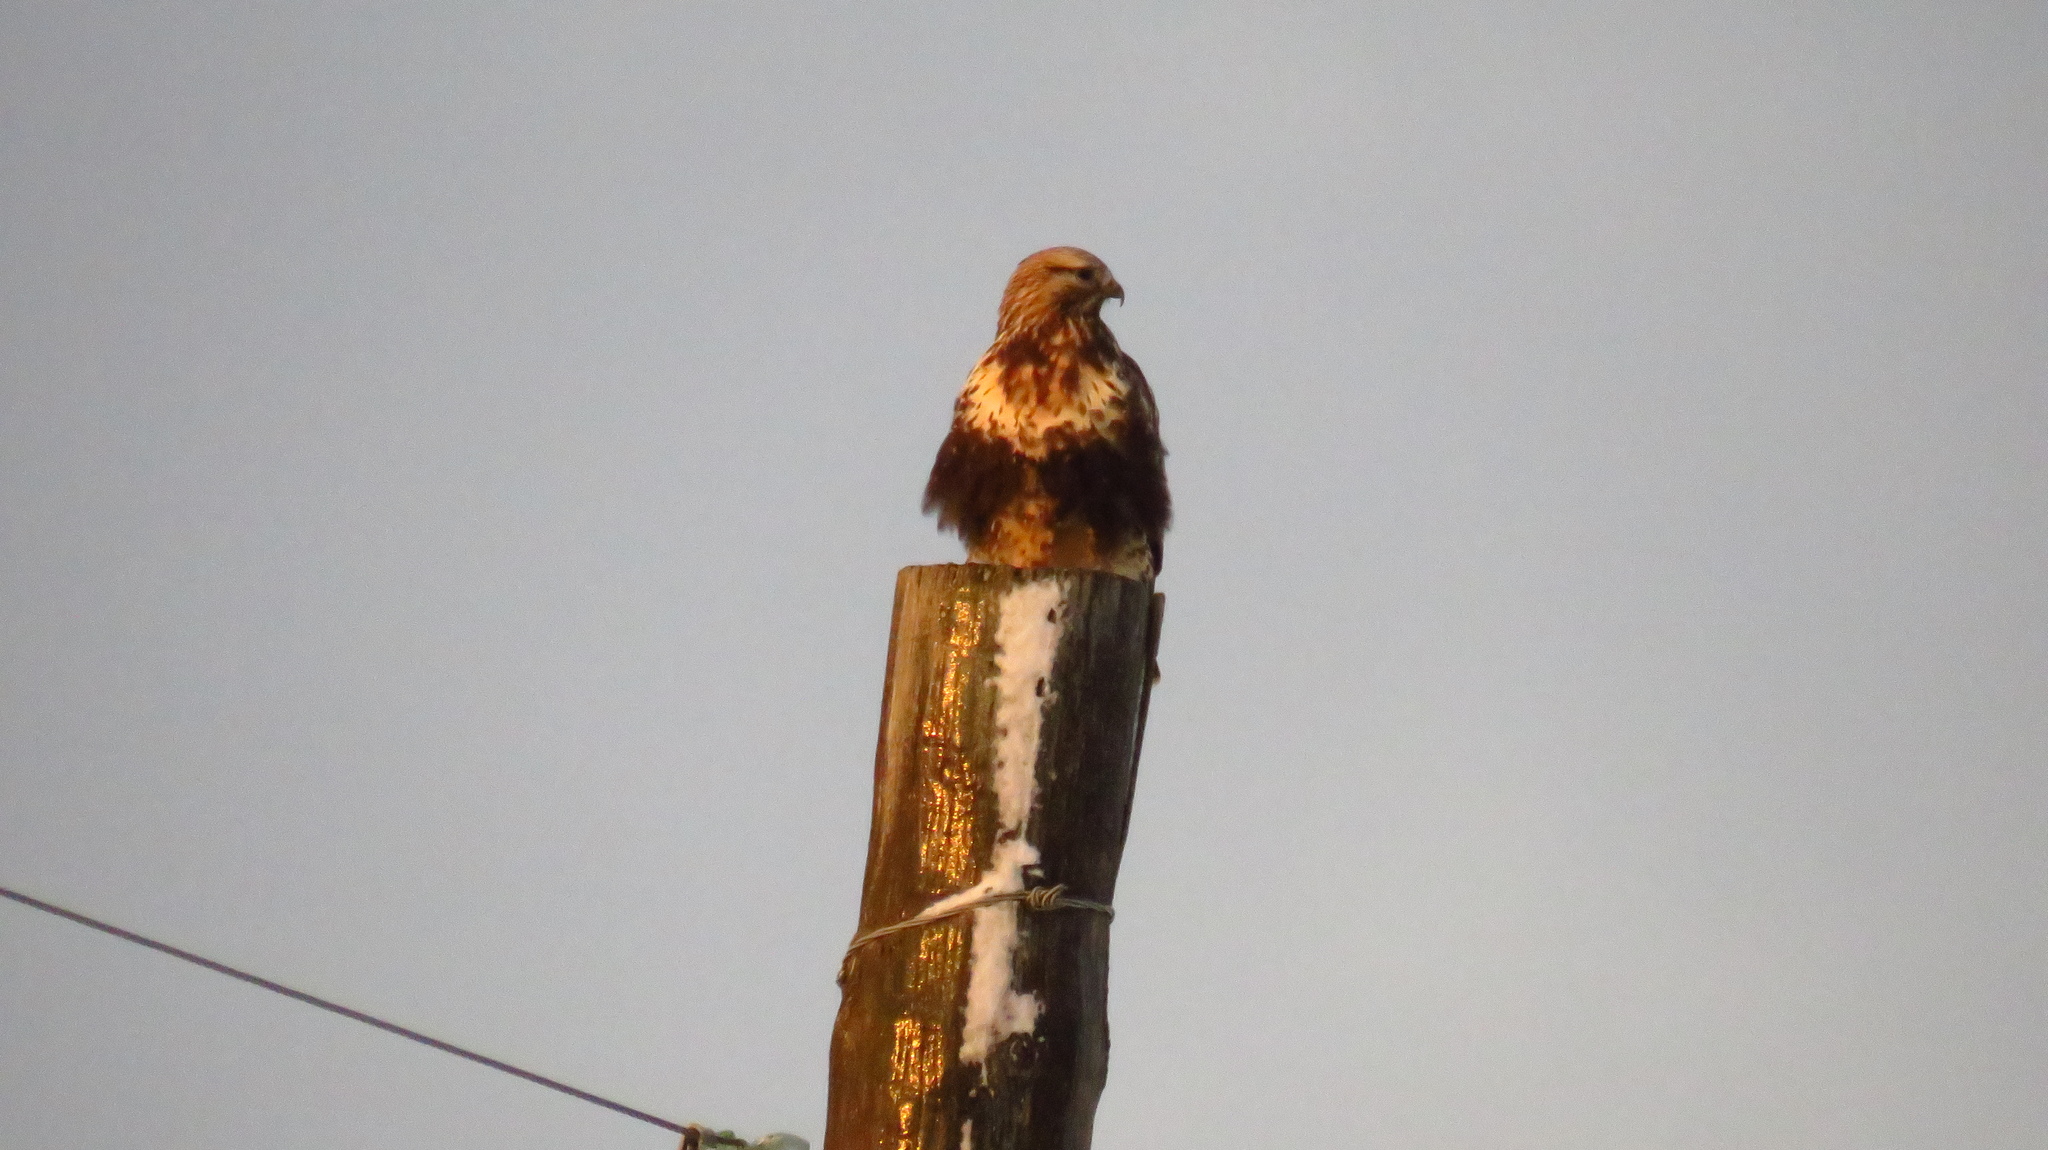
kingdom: Animalia
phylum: Chordata
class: Aves
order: Accipitriformes
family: Accipitridae
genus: Buteo
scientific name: Buteo lagopus
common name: Rough-legged buzzard
